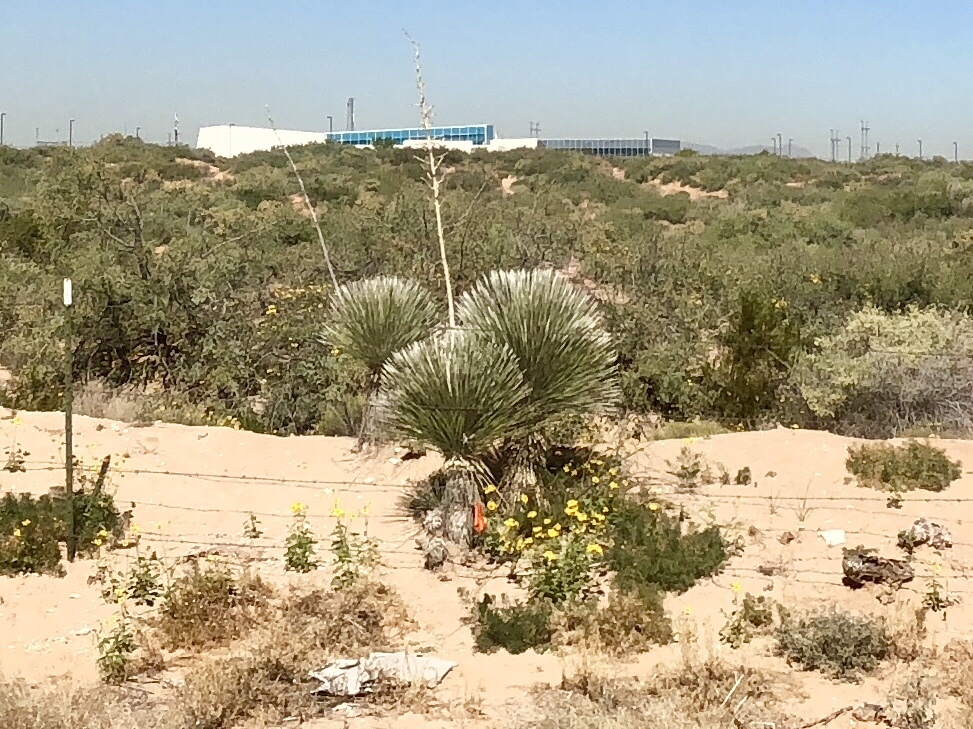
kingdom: Plantae
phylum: Tracheophyta
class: Liliopsida
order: Asparagales
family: Asparagaceae
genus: Yucca
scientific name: Yucca elata
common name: Palmella
